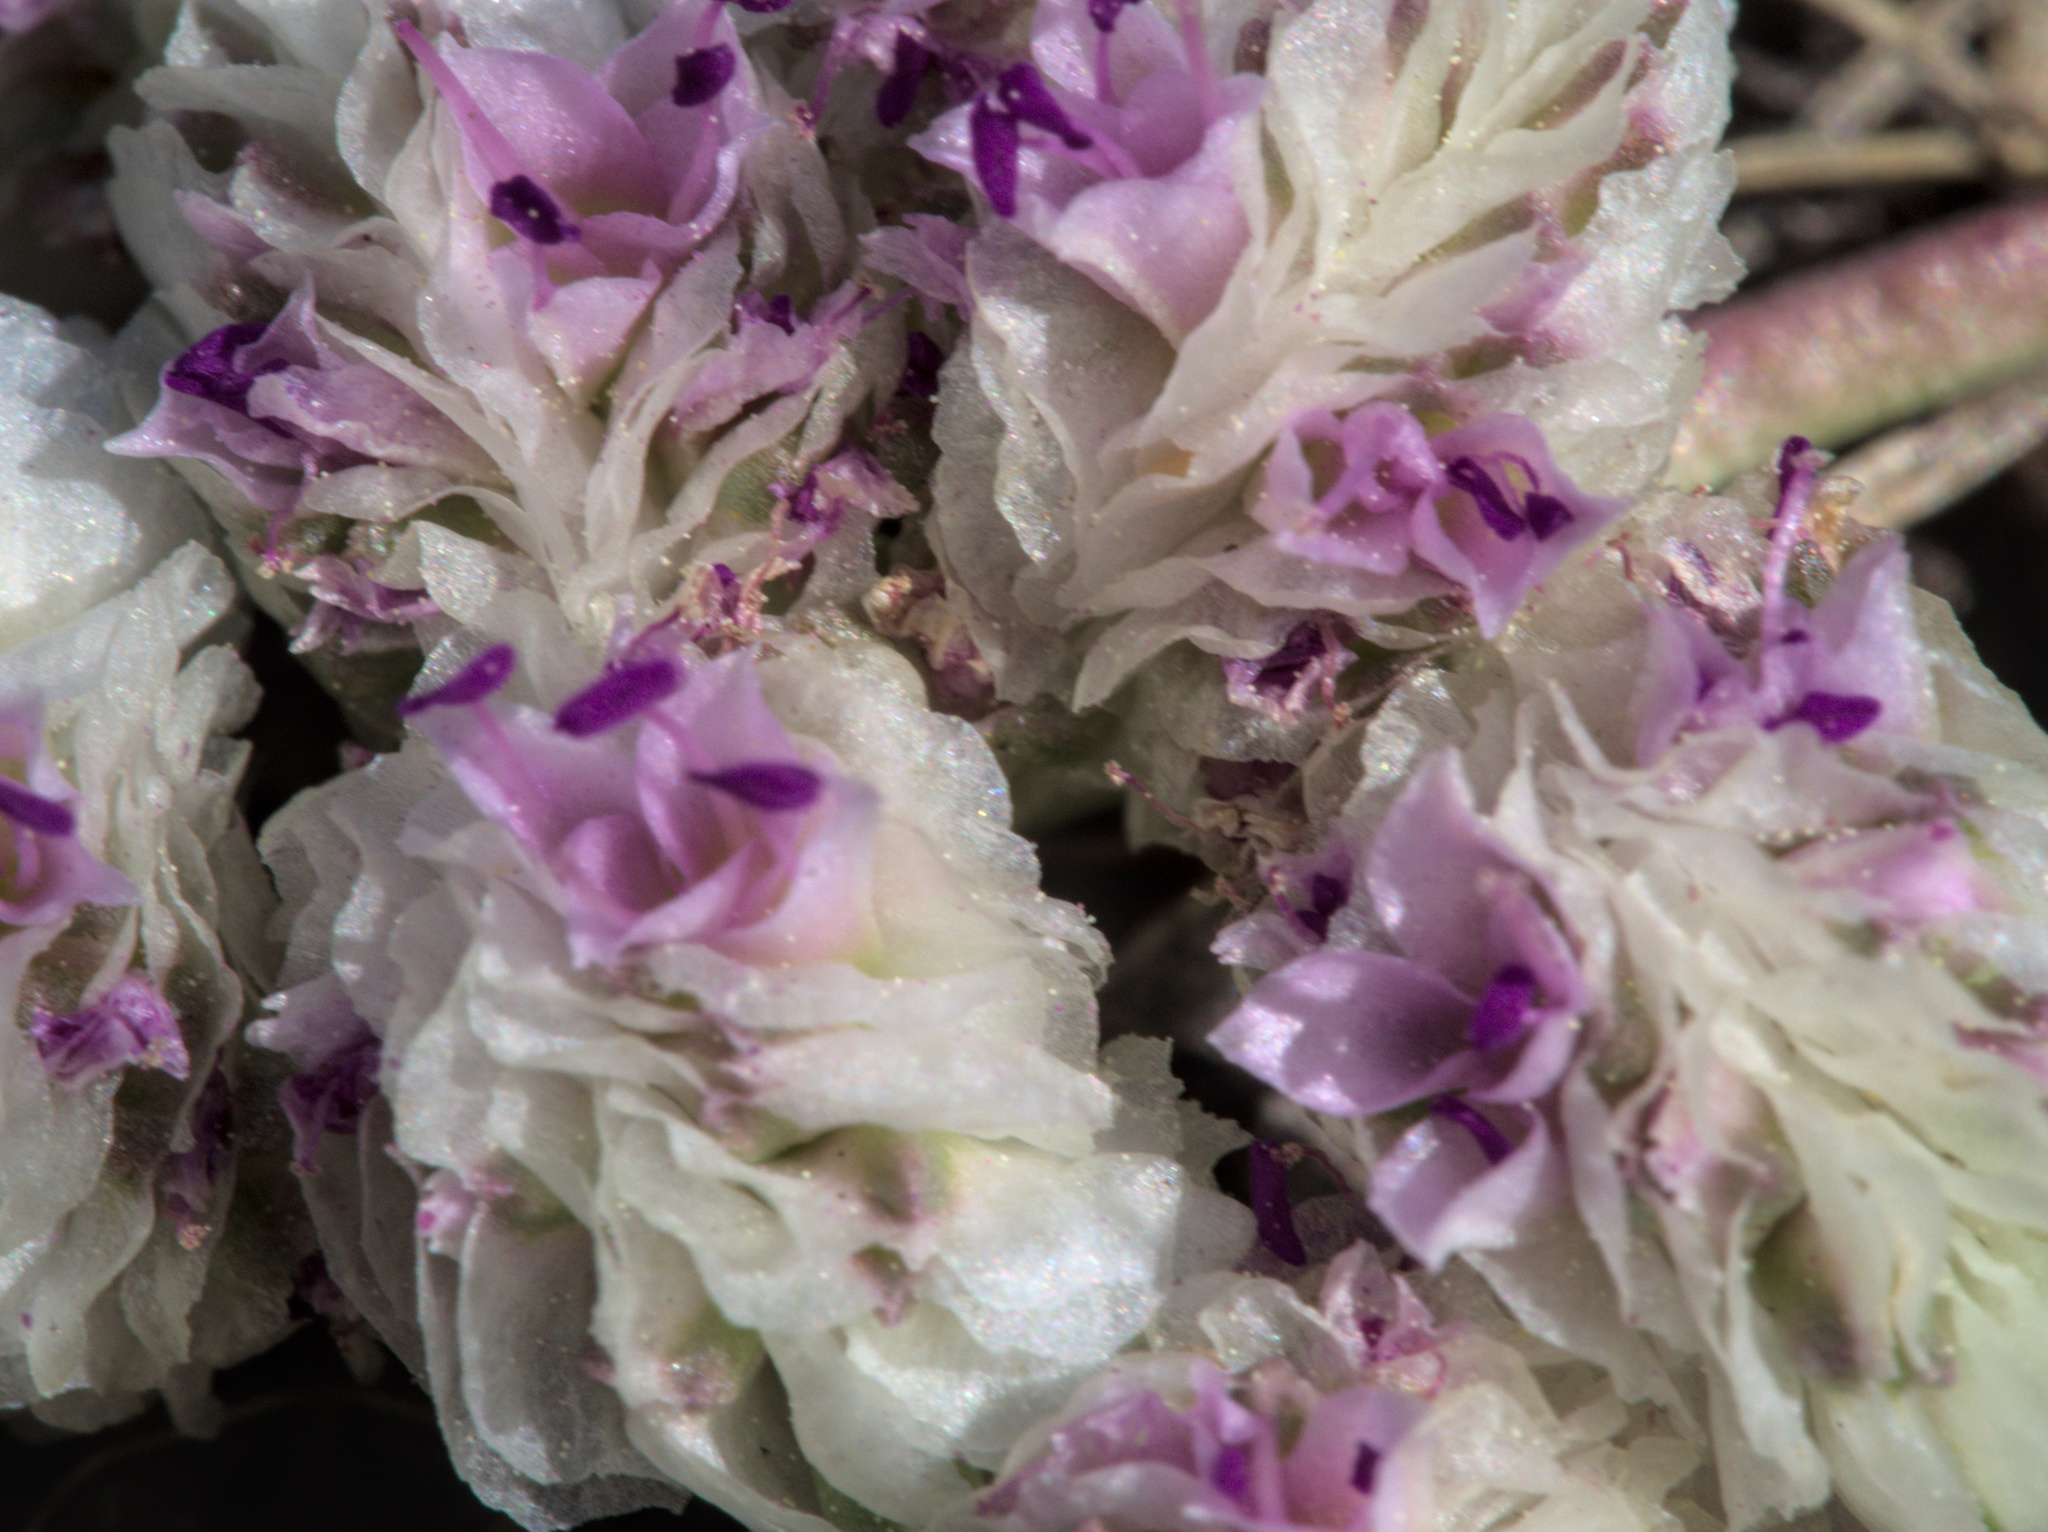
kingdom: Plantae
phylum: Tracheophyta
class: Magnoliopsida
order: Caryophyllales
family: Montiaceae
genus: Calyptridium
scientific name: Calyptridium monospermum
